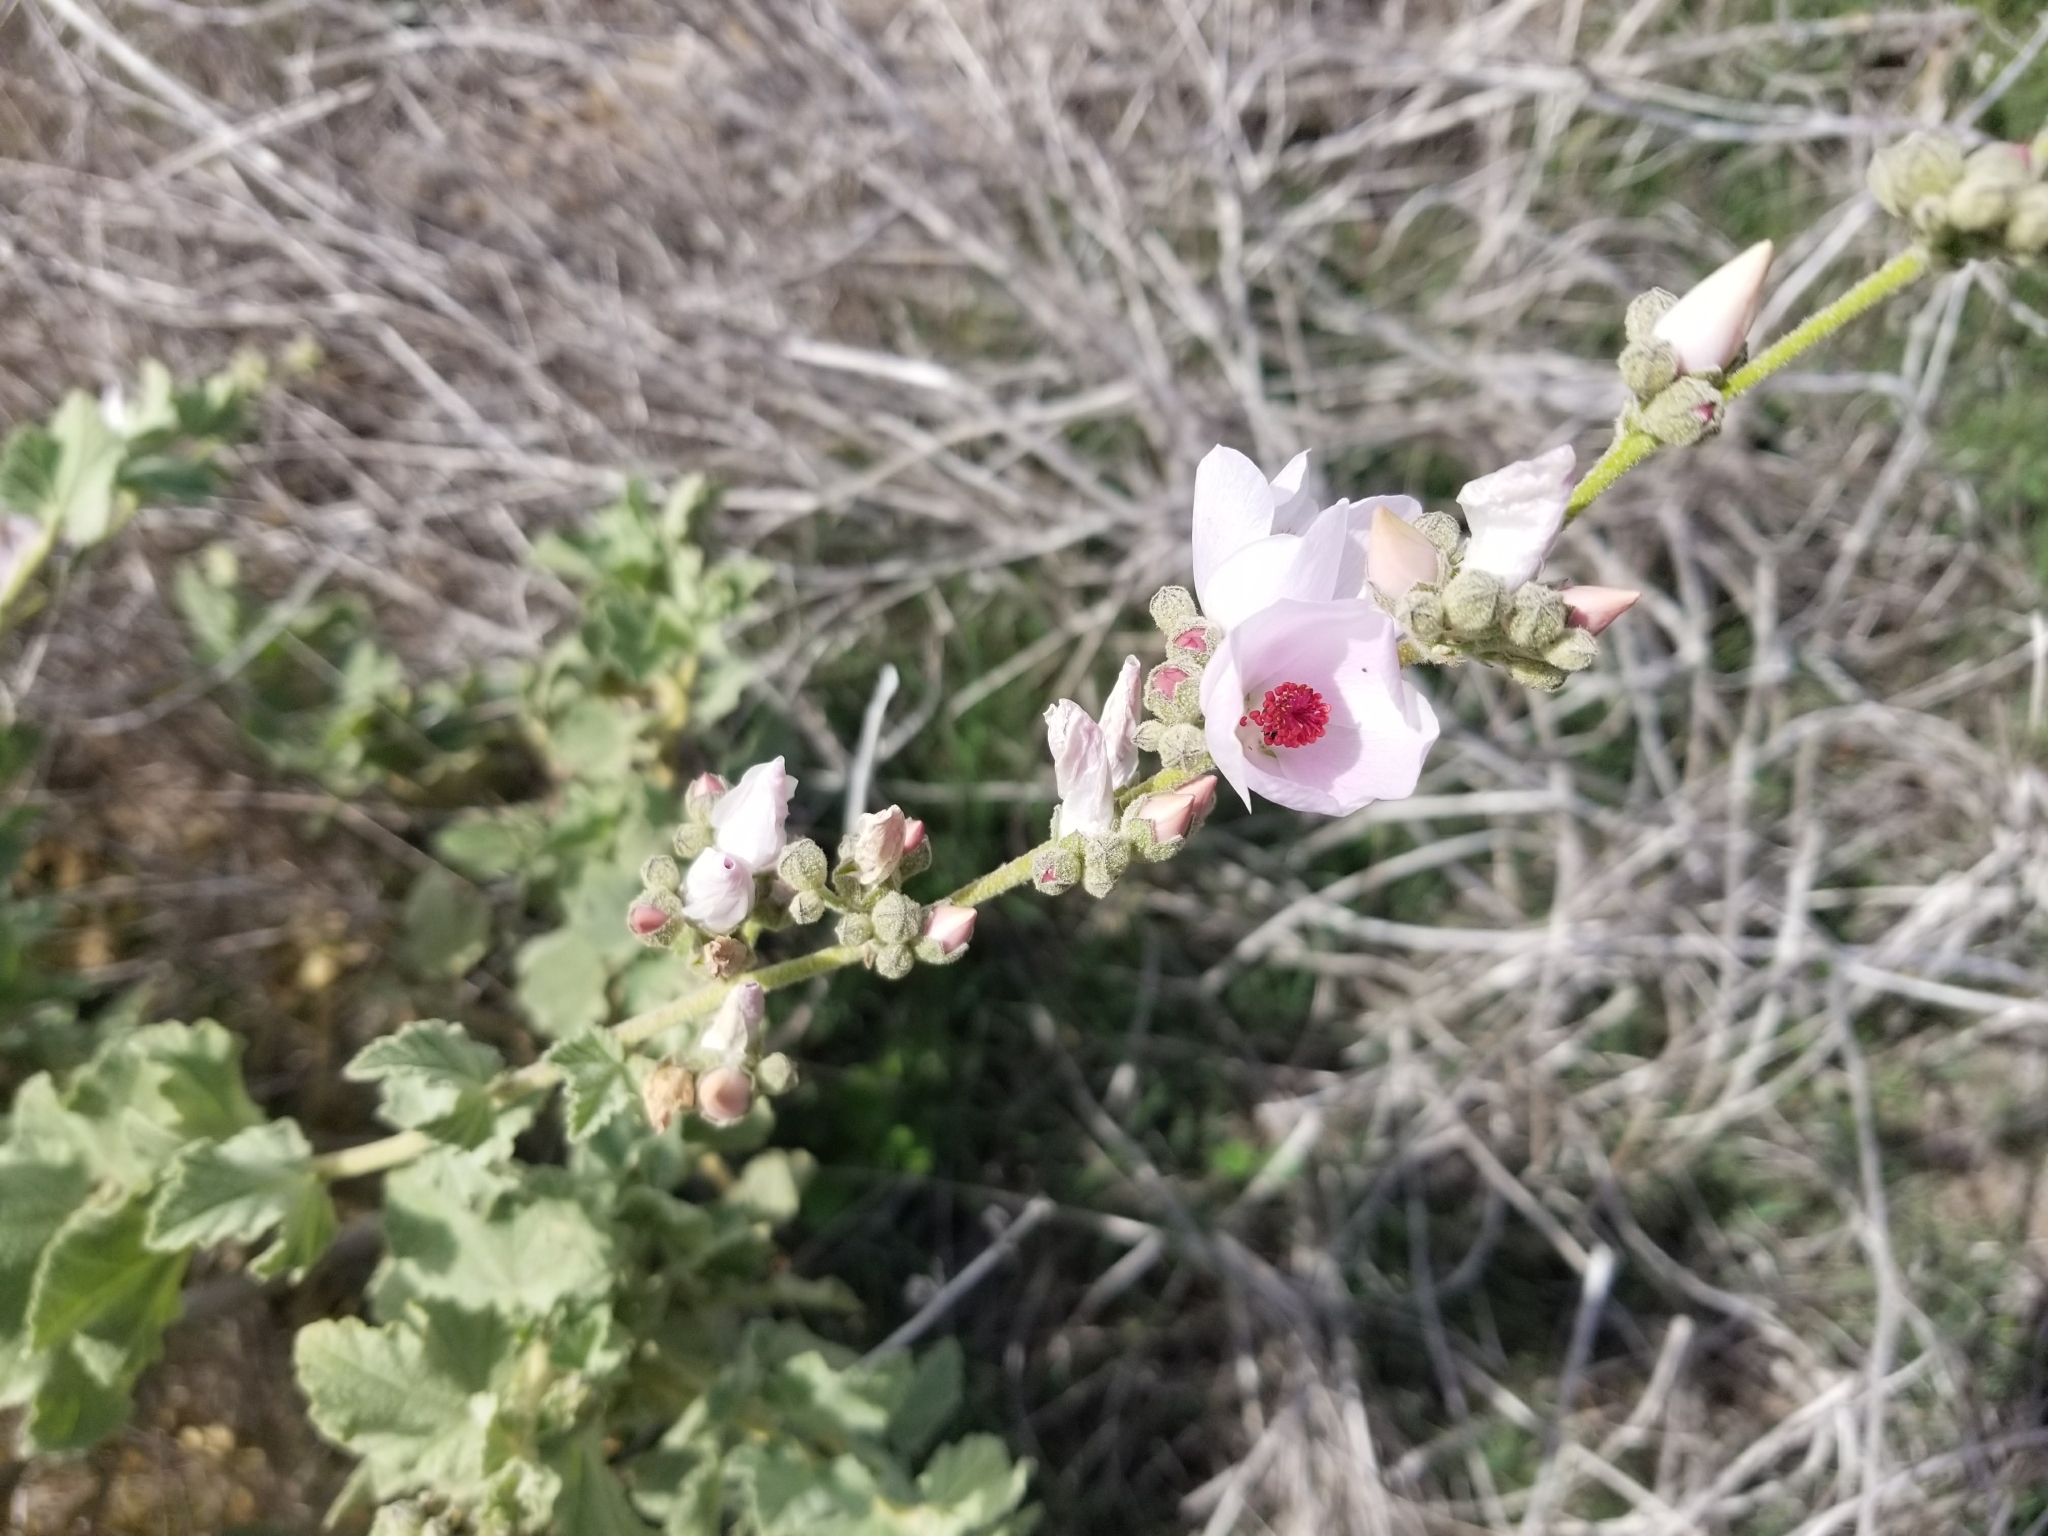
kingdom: Plantae
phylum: Tracheophyta
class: Magnoliopsida
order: Malvales
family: Malvaceae
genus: Malacothamnus
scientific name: Malacothamnus fasciculatus
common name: Sant cruz island bush-mallow
